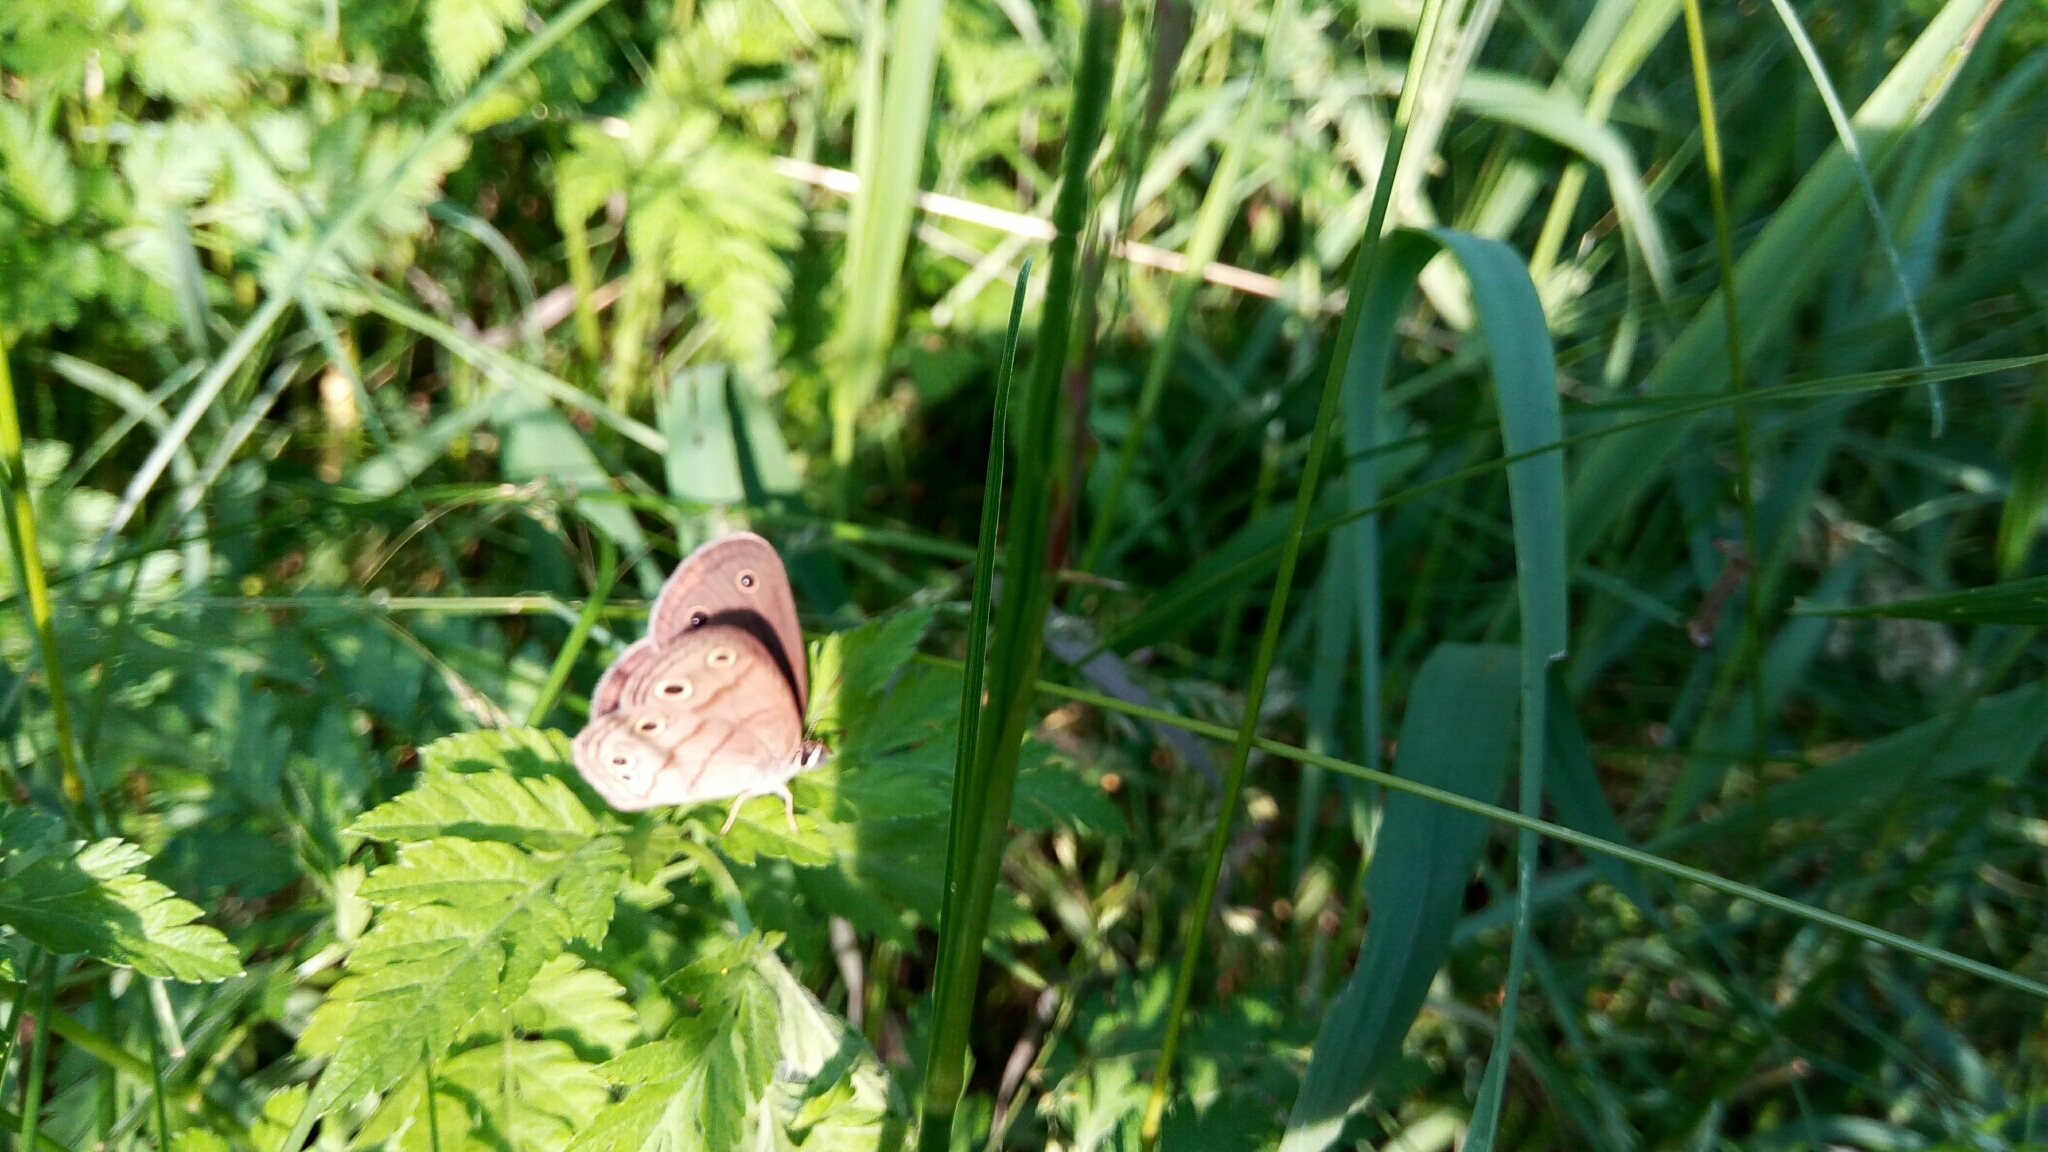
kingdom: Animalia
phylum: Arthropoda
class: Insecta
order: Lepidoptera
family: Nymphalidae
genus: Euptychia
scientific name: Euptychia cymela
